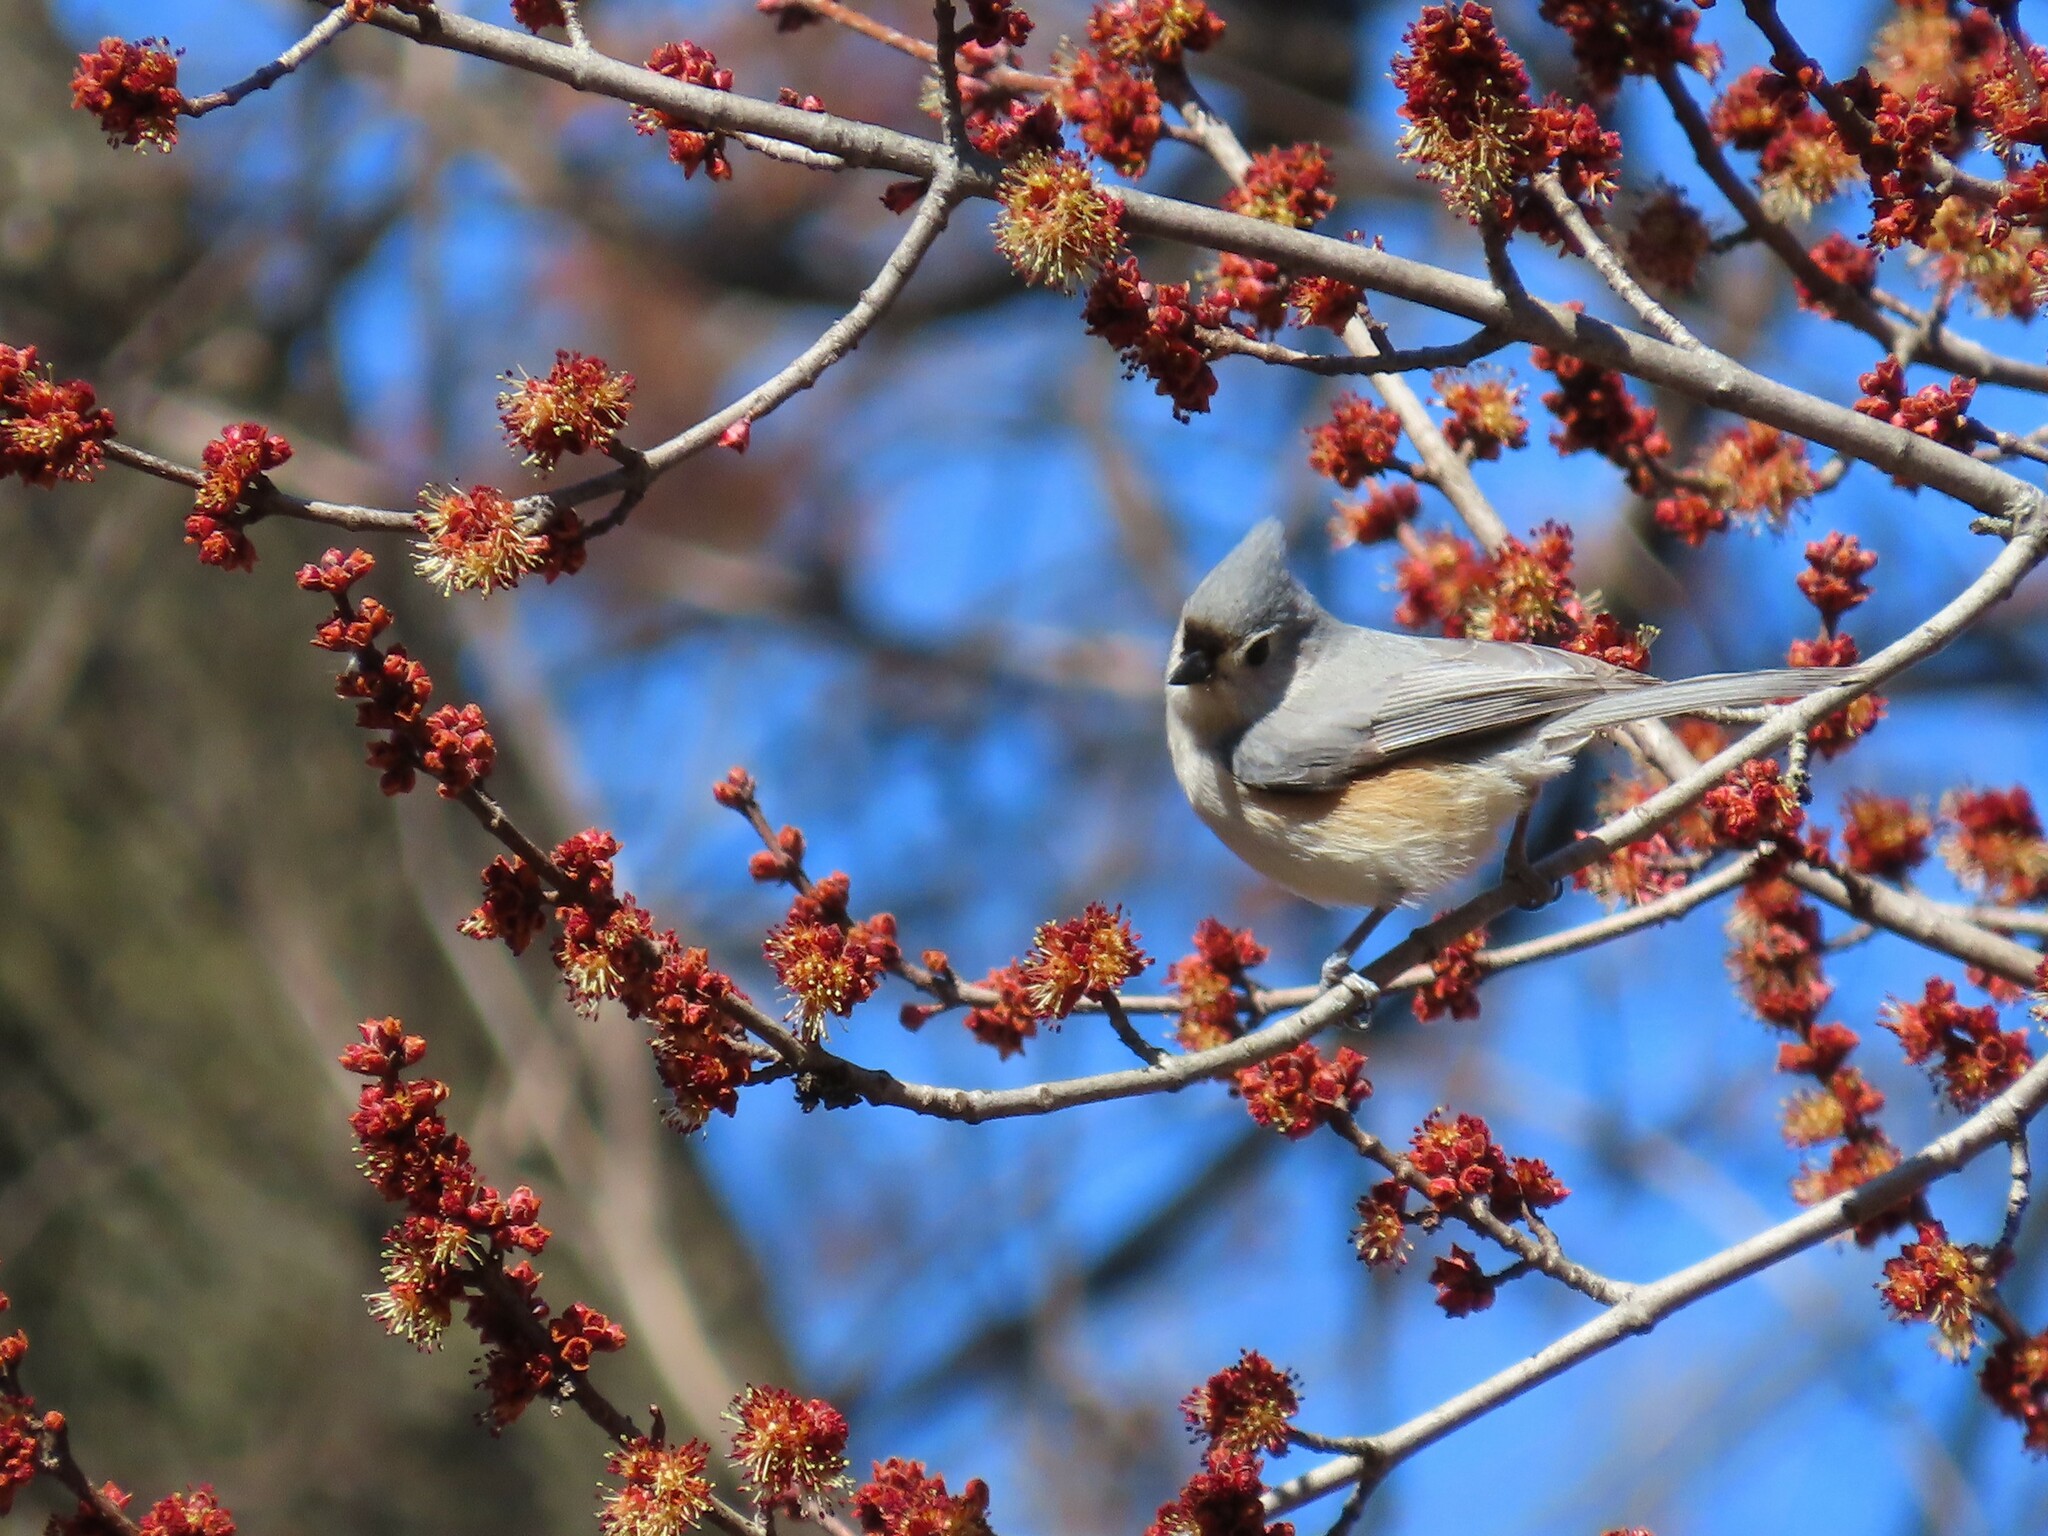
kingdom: Animalia
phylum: Chordata
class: Aves
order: Passeriformes
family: Paridae
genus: Baeolophus
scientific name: Baeolophus bicolor
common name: Tufted titmouse
